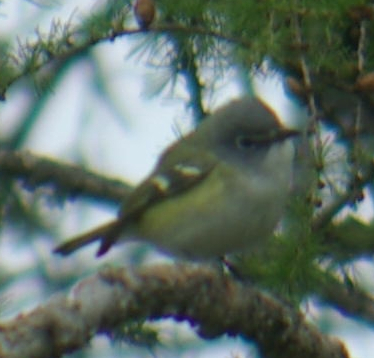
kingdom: Animalia
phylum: Chordata
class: Aves
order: Passeriformes
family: Vireonidae
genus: Vireo
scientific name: Vireo solitarius
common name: Blue-headed vireo
